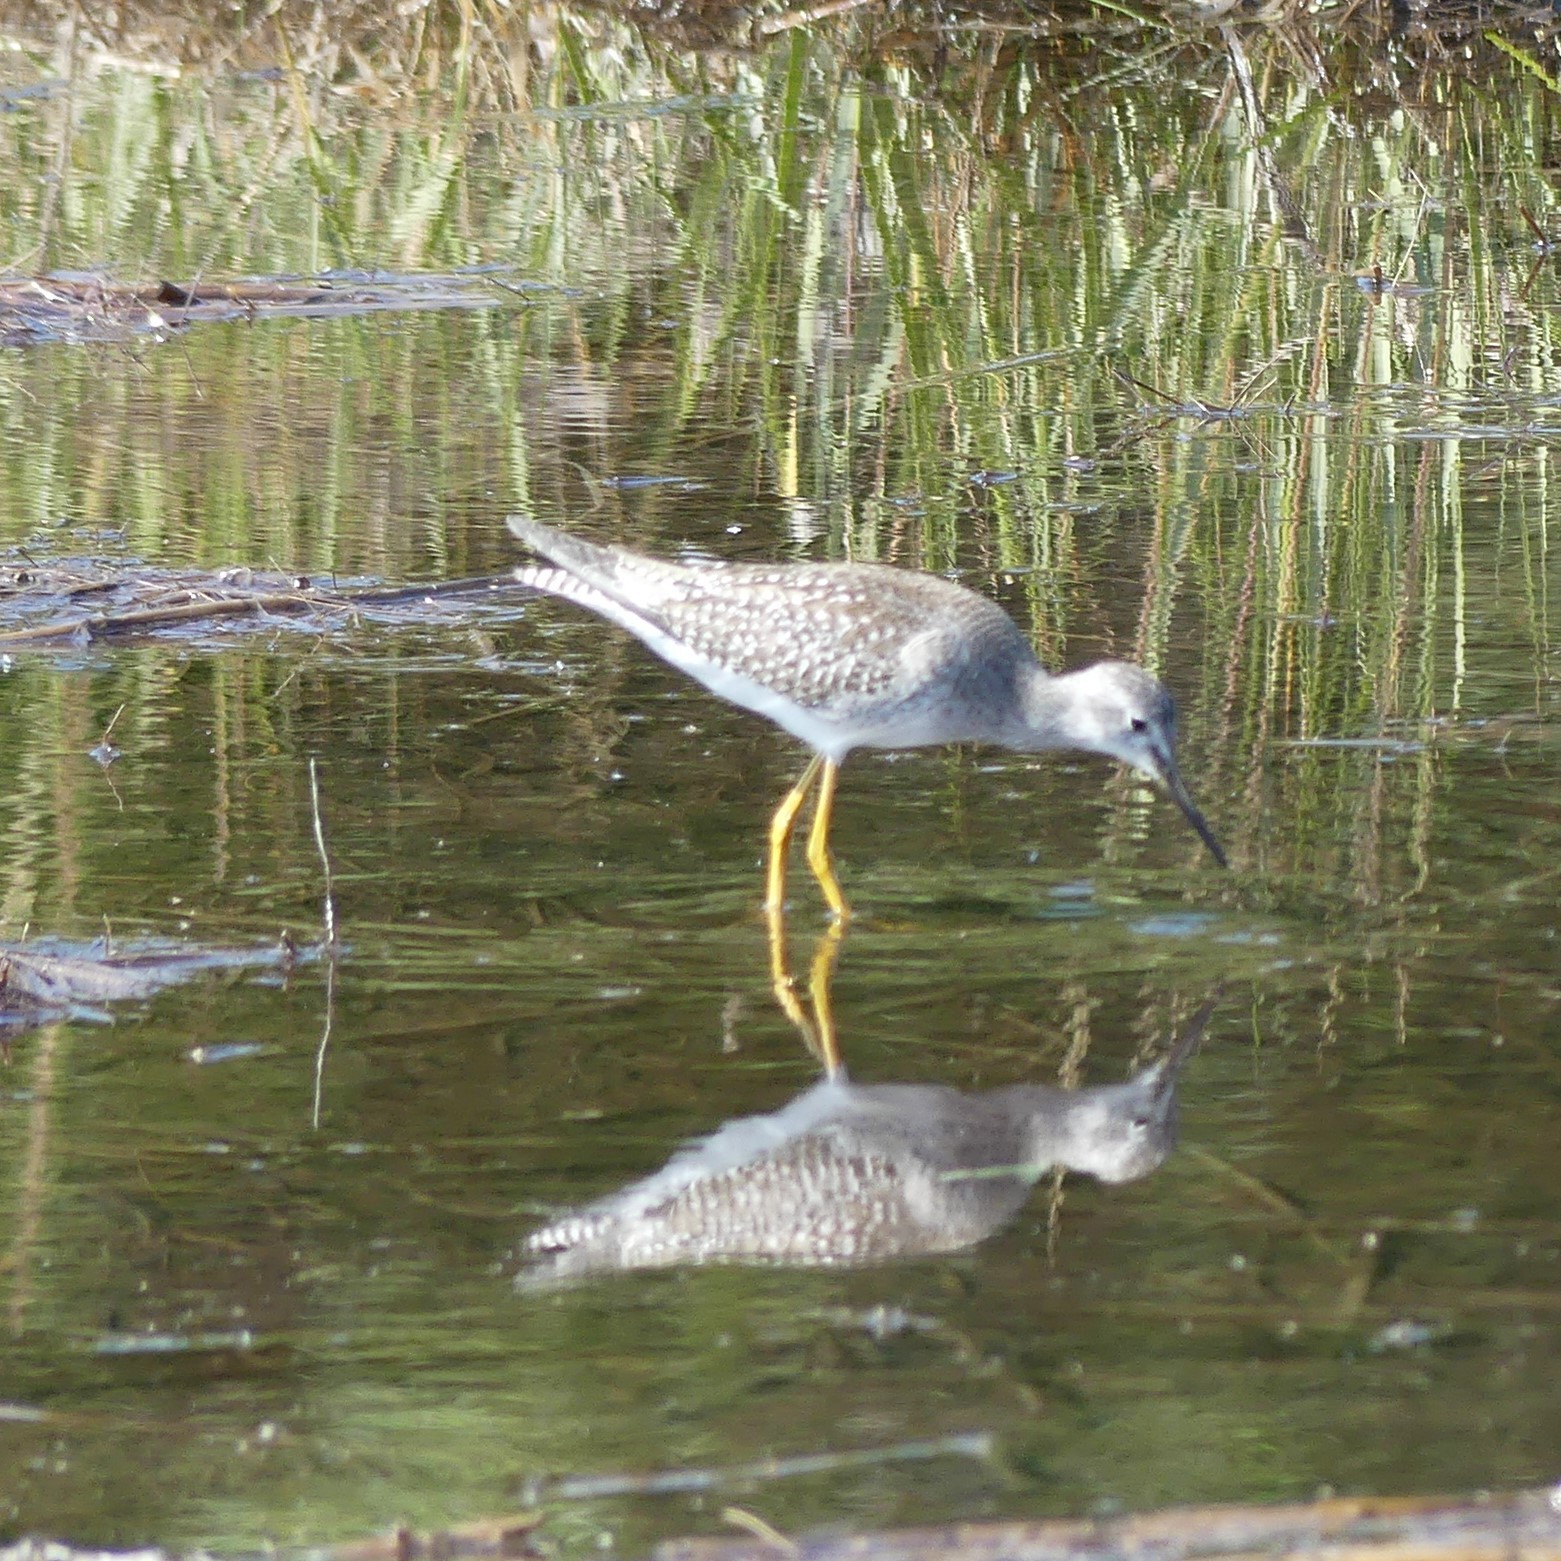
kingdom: Animalia
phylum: Chordata
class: Aves
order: Charadriiformes
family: Scolopacidae
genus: Tringa
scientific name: Tringa flavipes
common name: Lesser yellowlegs
